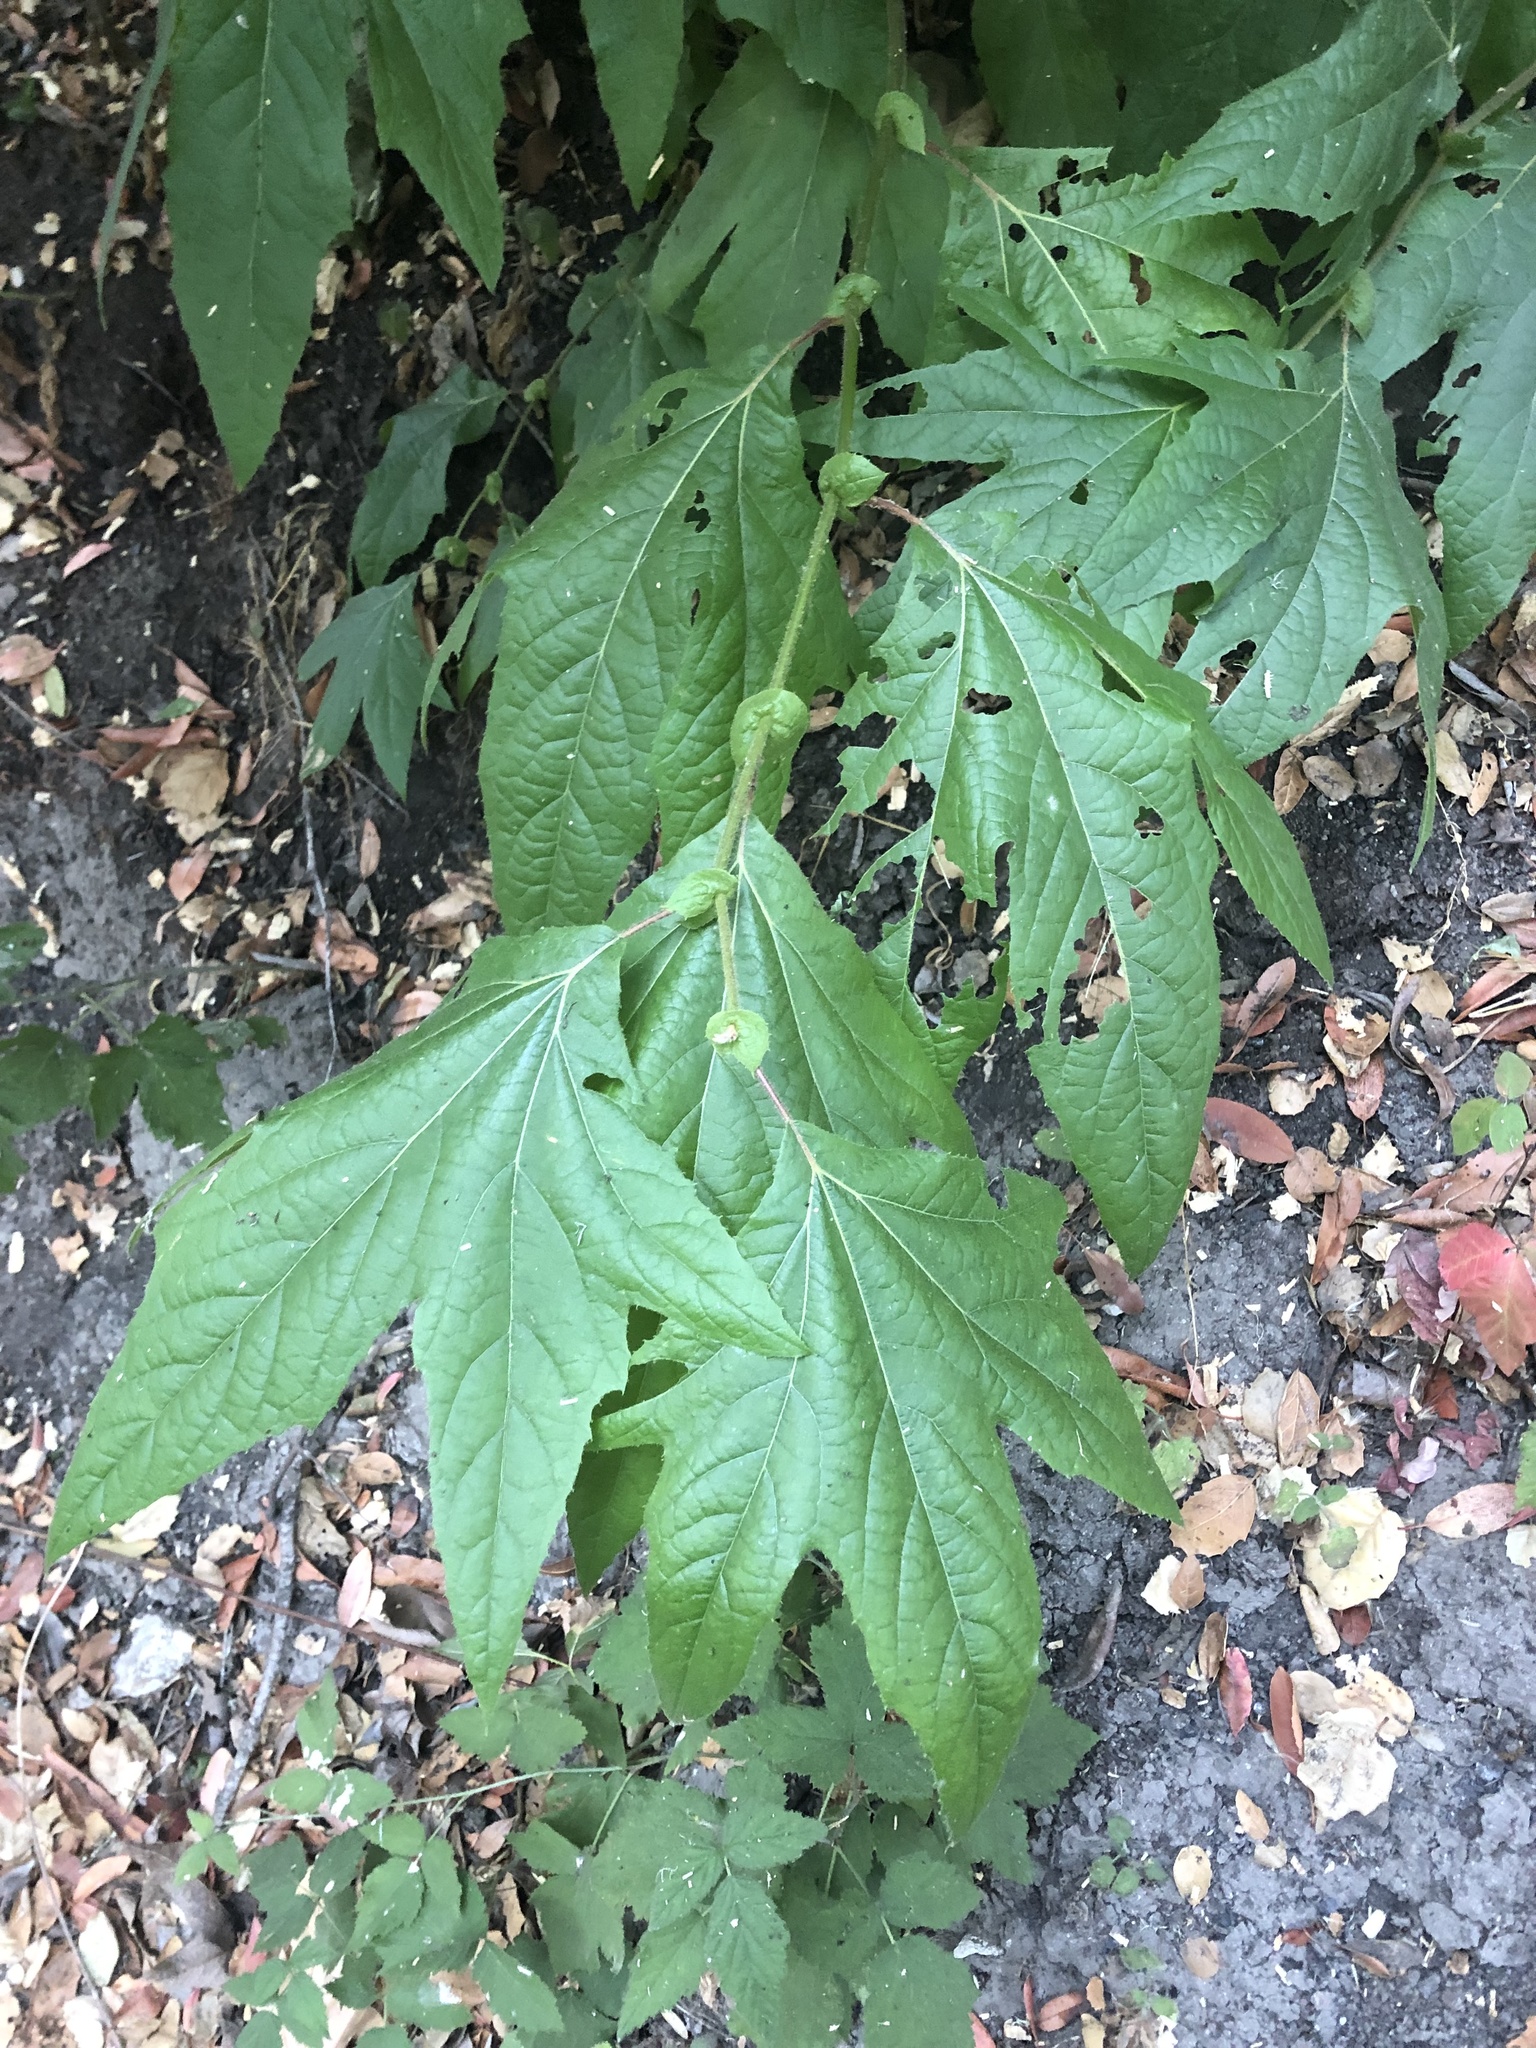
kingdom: Plantae
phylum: Tracheophyta
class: Magnoliopsida
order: Proteales
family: Platanaceae
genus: Platanus
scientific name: Platanus racemosa
